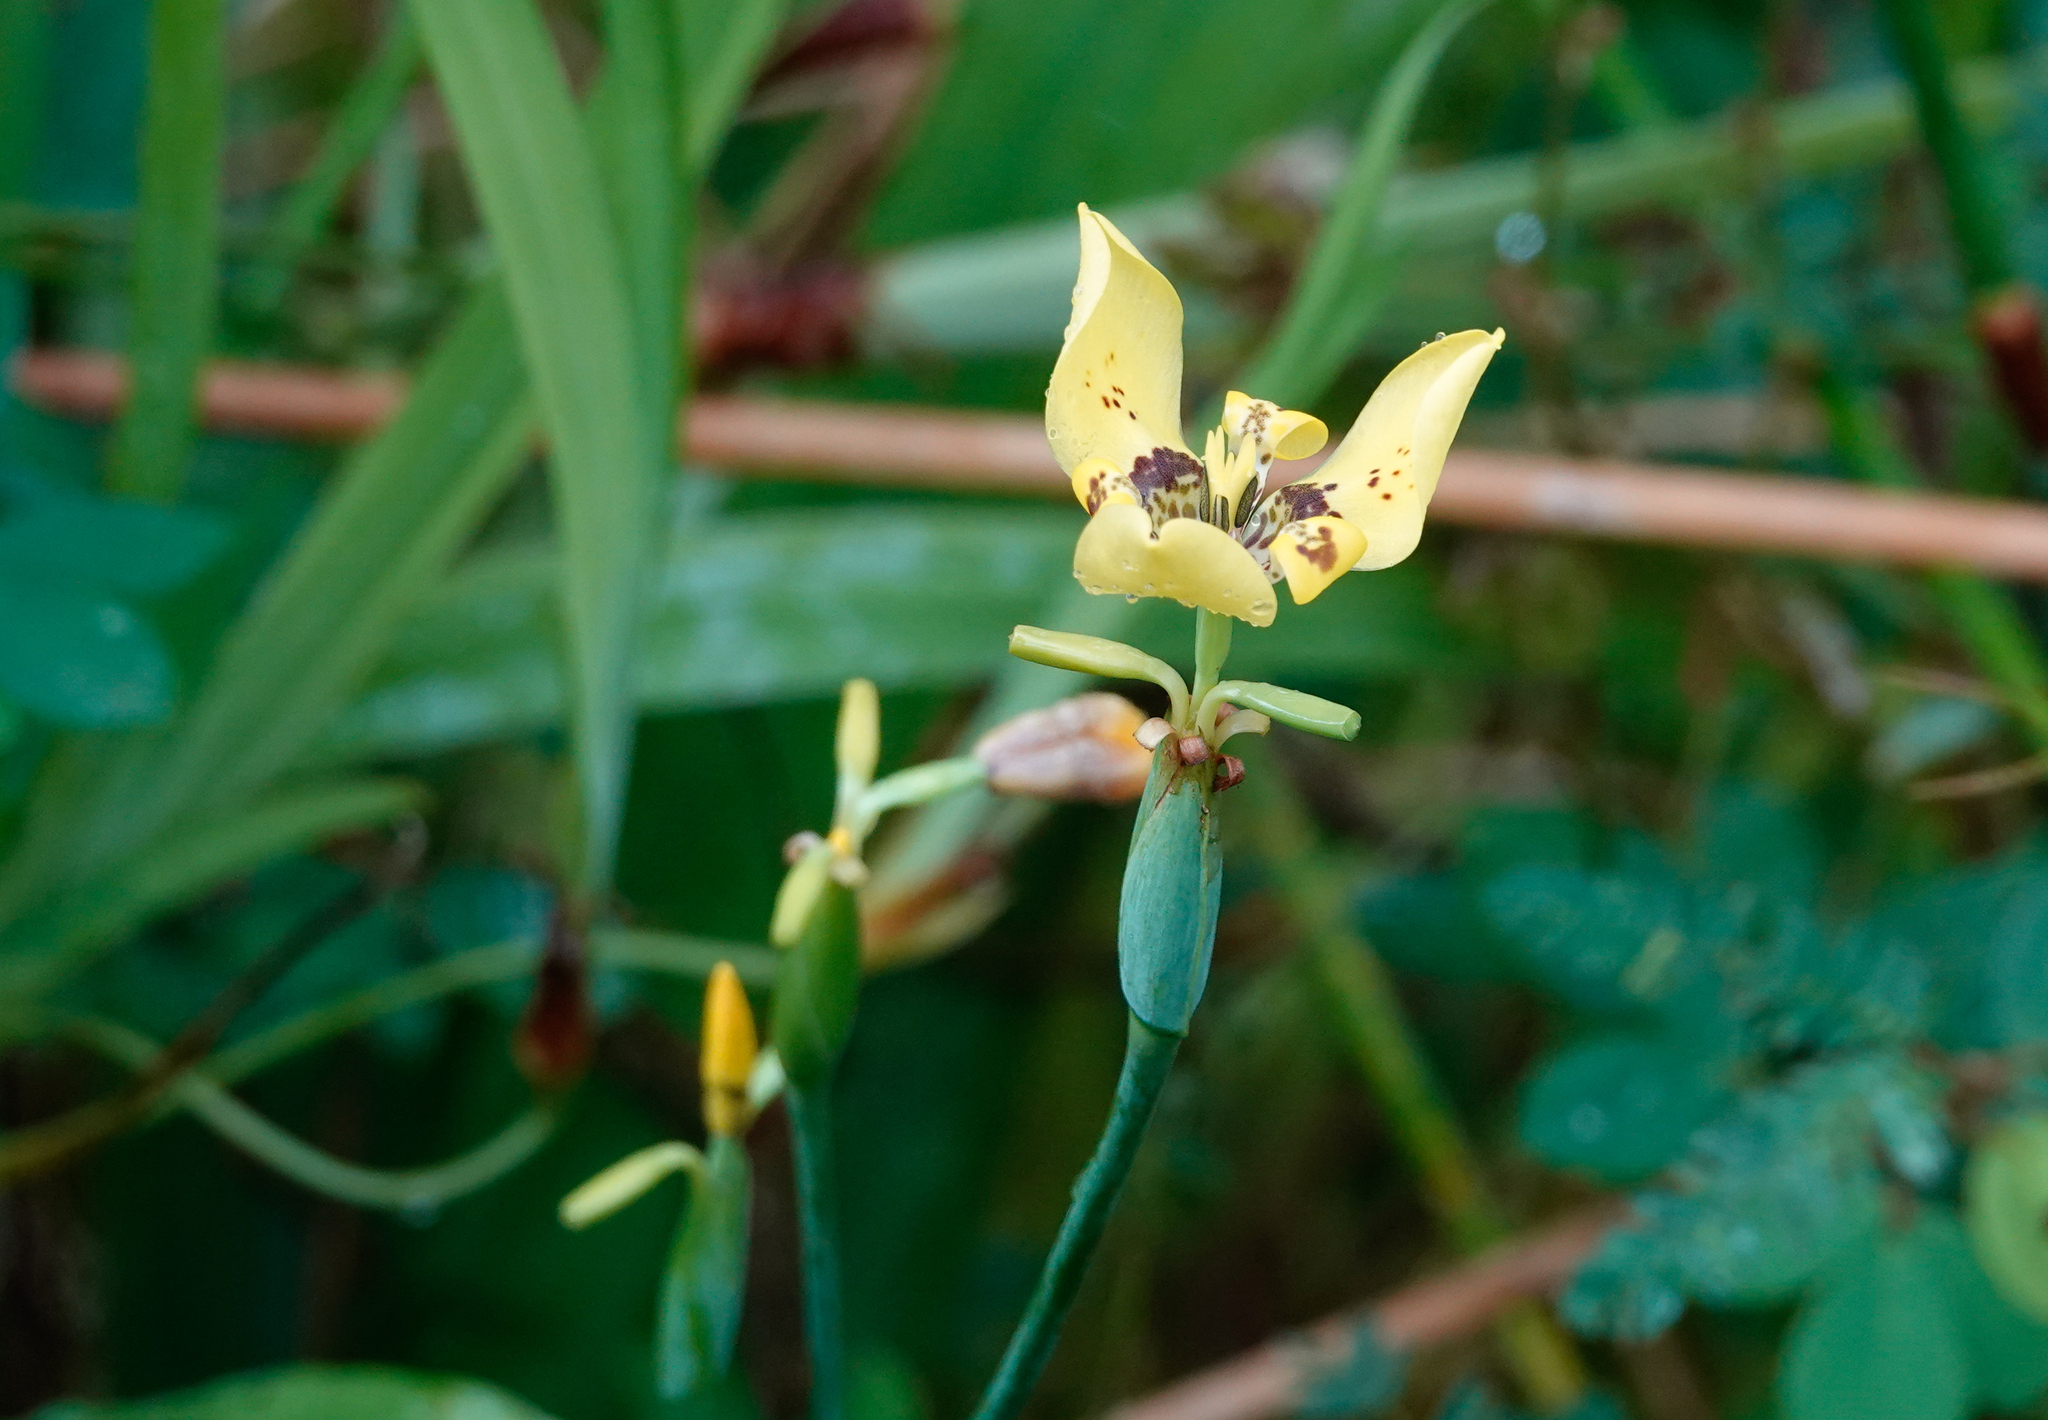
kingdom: Plantae
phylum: Tracheophyta
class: Liliopsida
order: Asparagales
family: Iridaceae
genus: Trimezia
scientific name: Trimezia steyermarkii
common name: Trimezia
